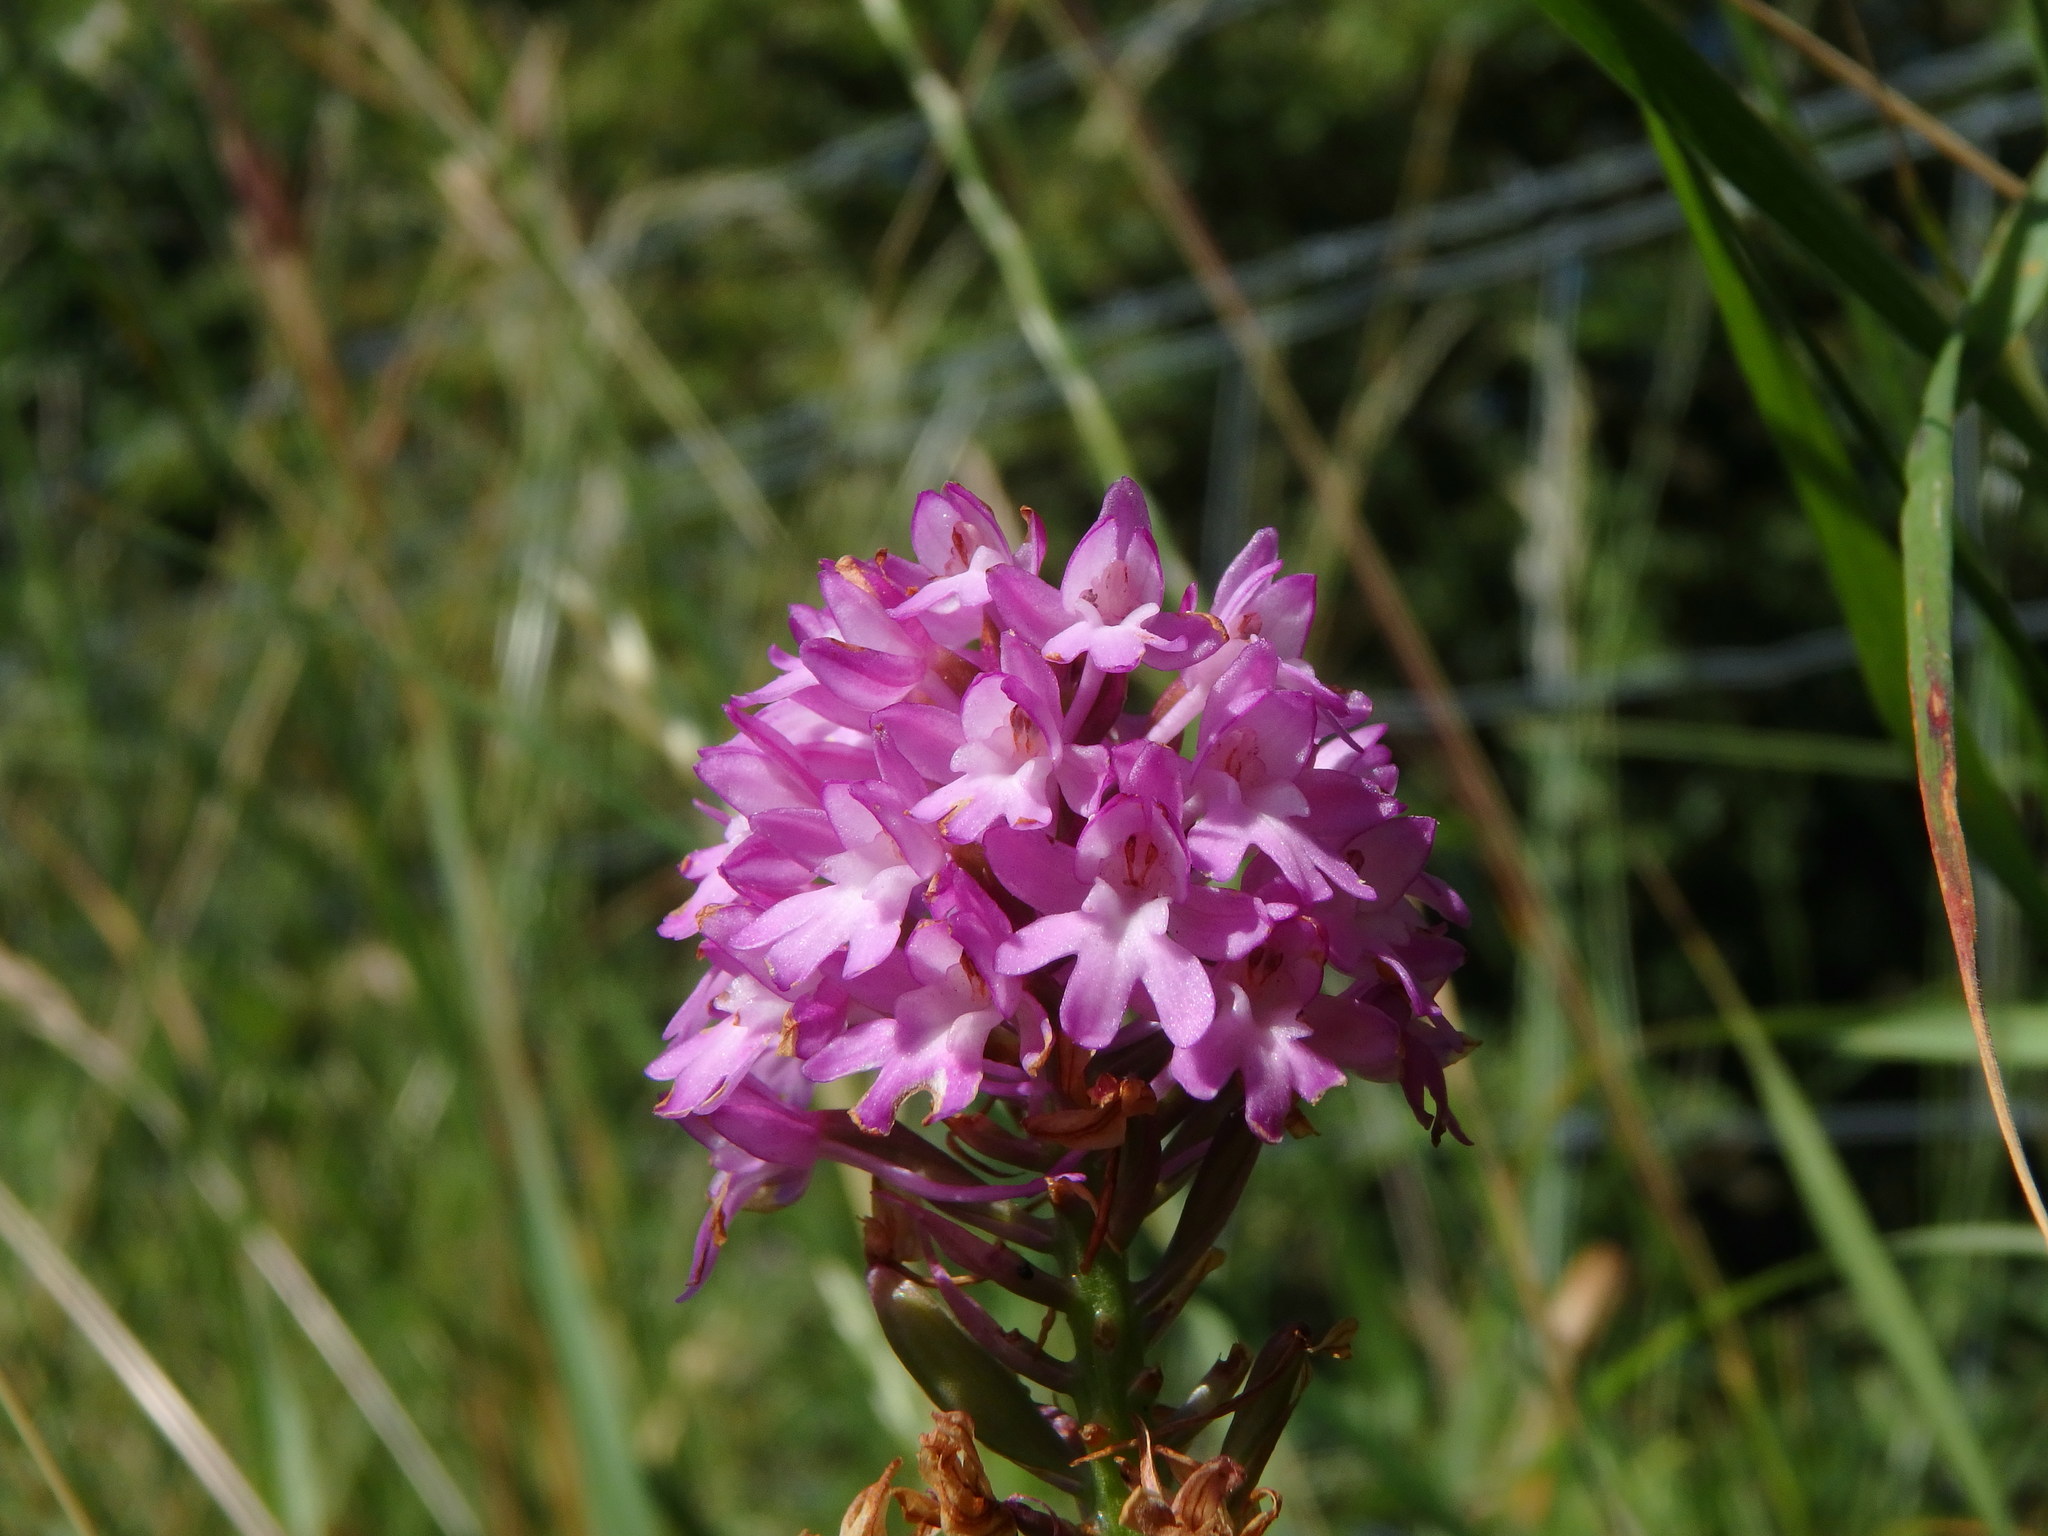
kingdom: Plantae
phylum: Tracheophyta
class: Liliopsida
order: Asparagales
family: Orchidaceae
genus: Anacamptis
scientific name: Anacamptis pyramidalis
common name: Pyramidal orchid
